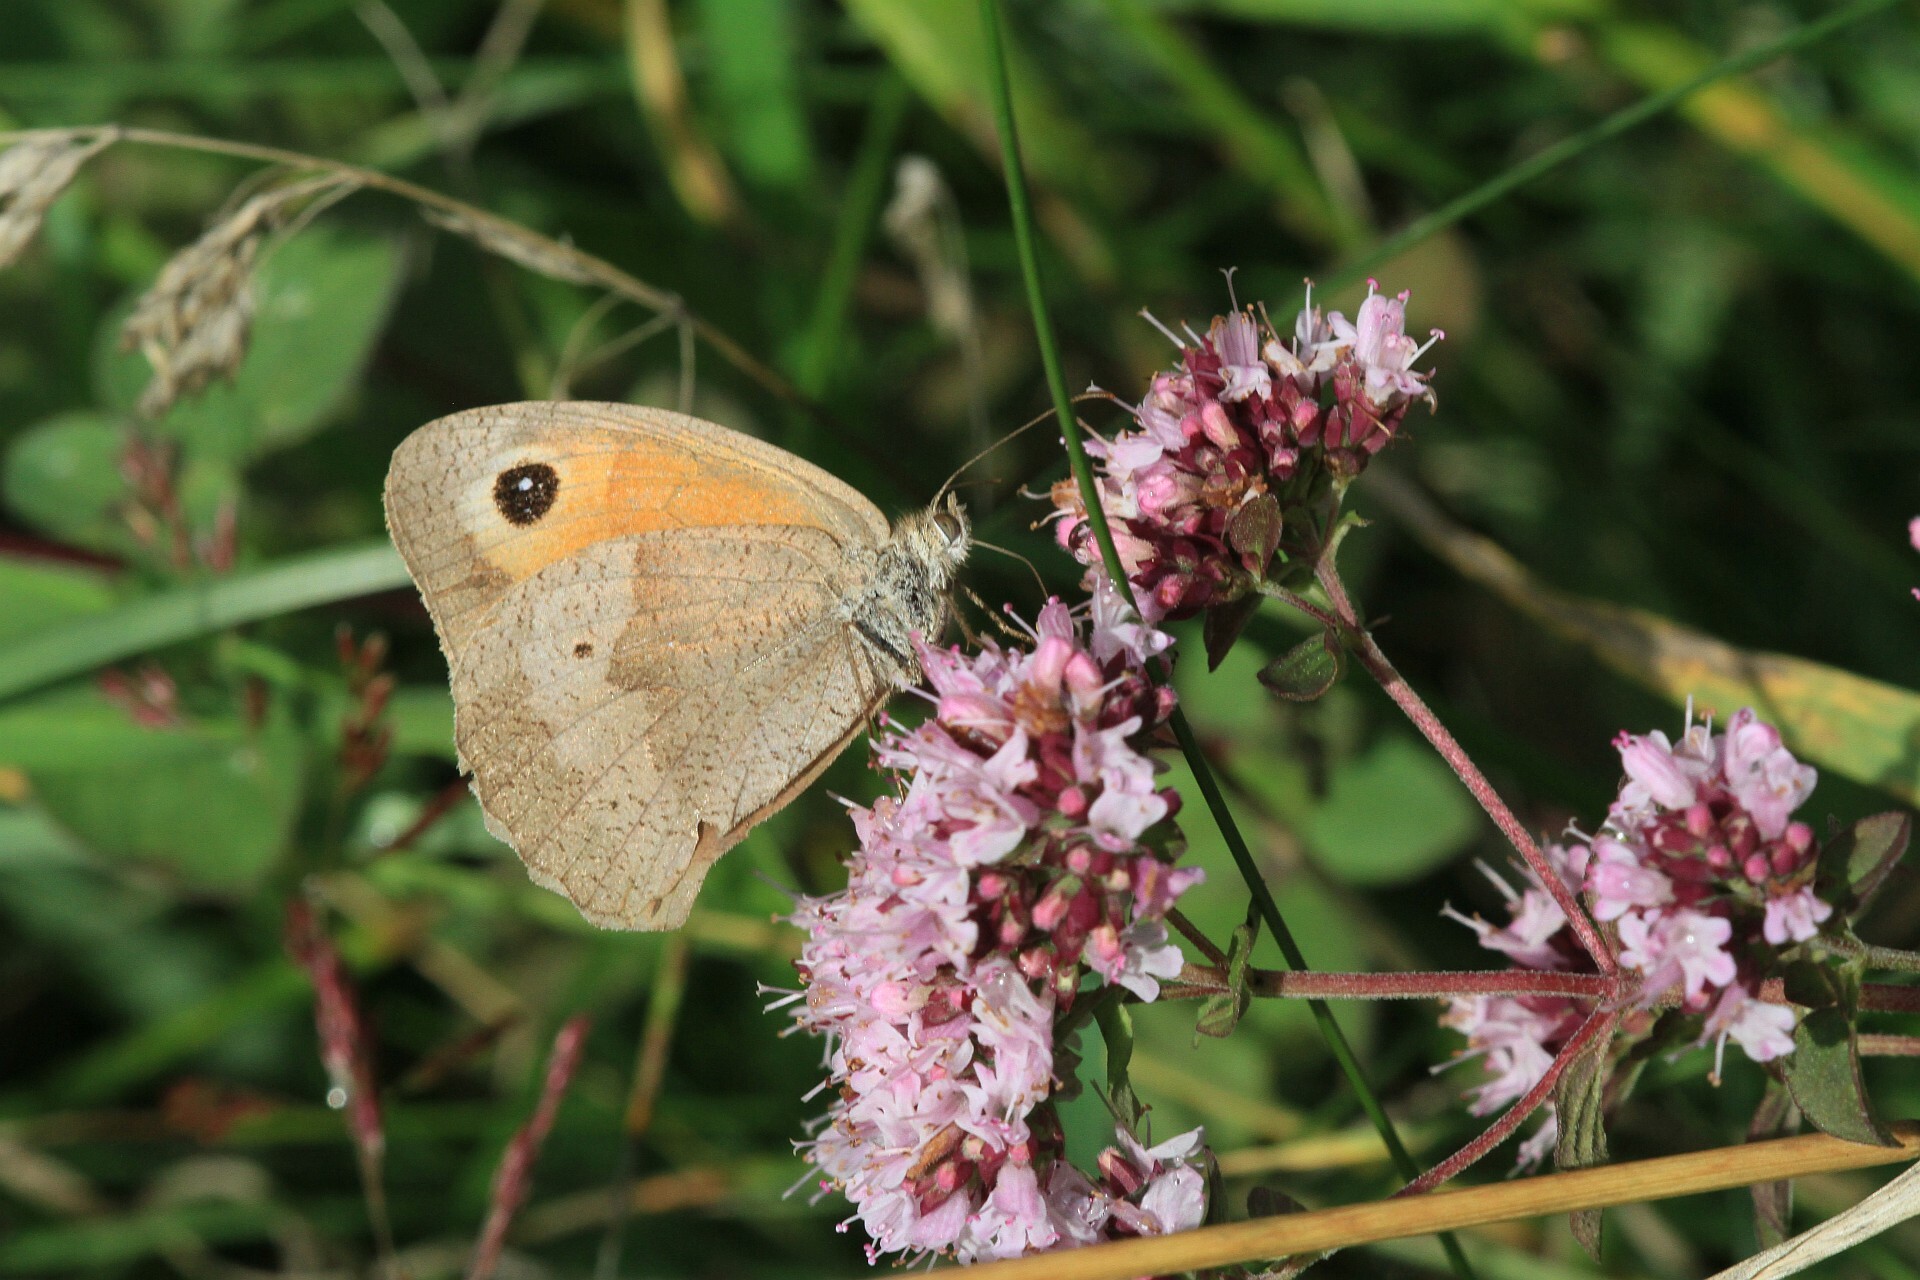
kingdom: Animalia
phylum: Arthropoda
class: Insecta
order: Lepidoptera
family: Nymphalidae
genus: Maniola
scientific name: Maniola jurtina
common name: Meadow brown
